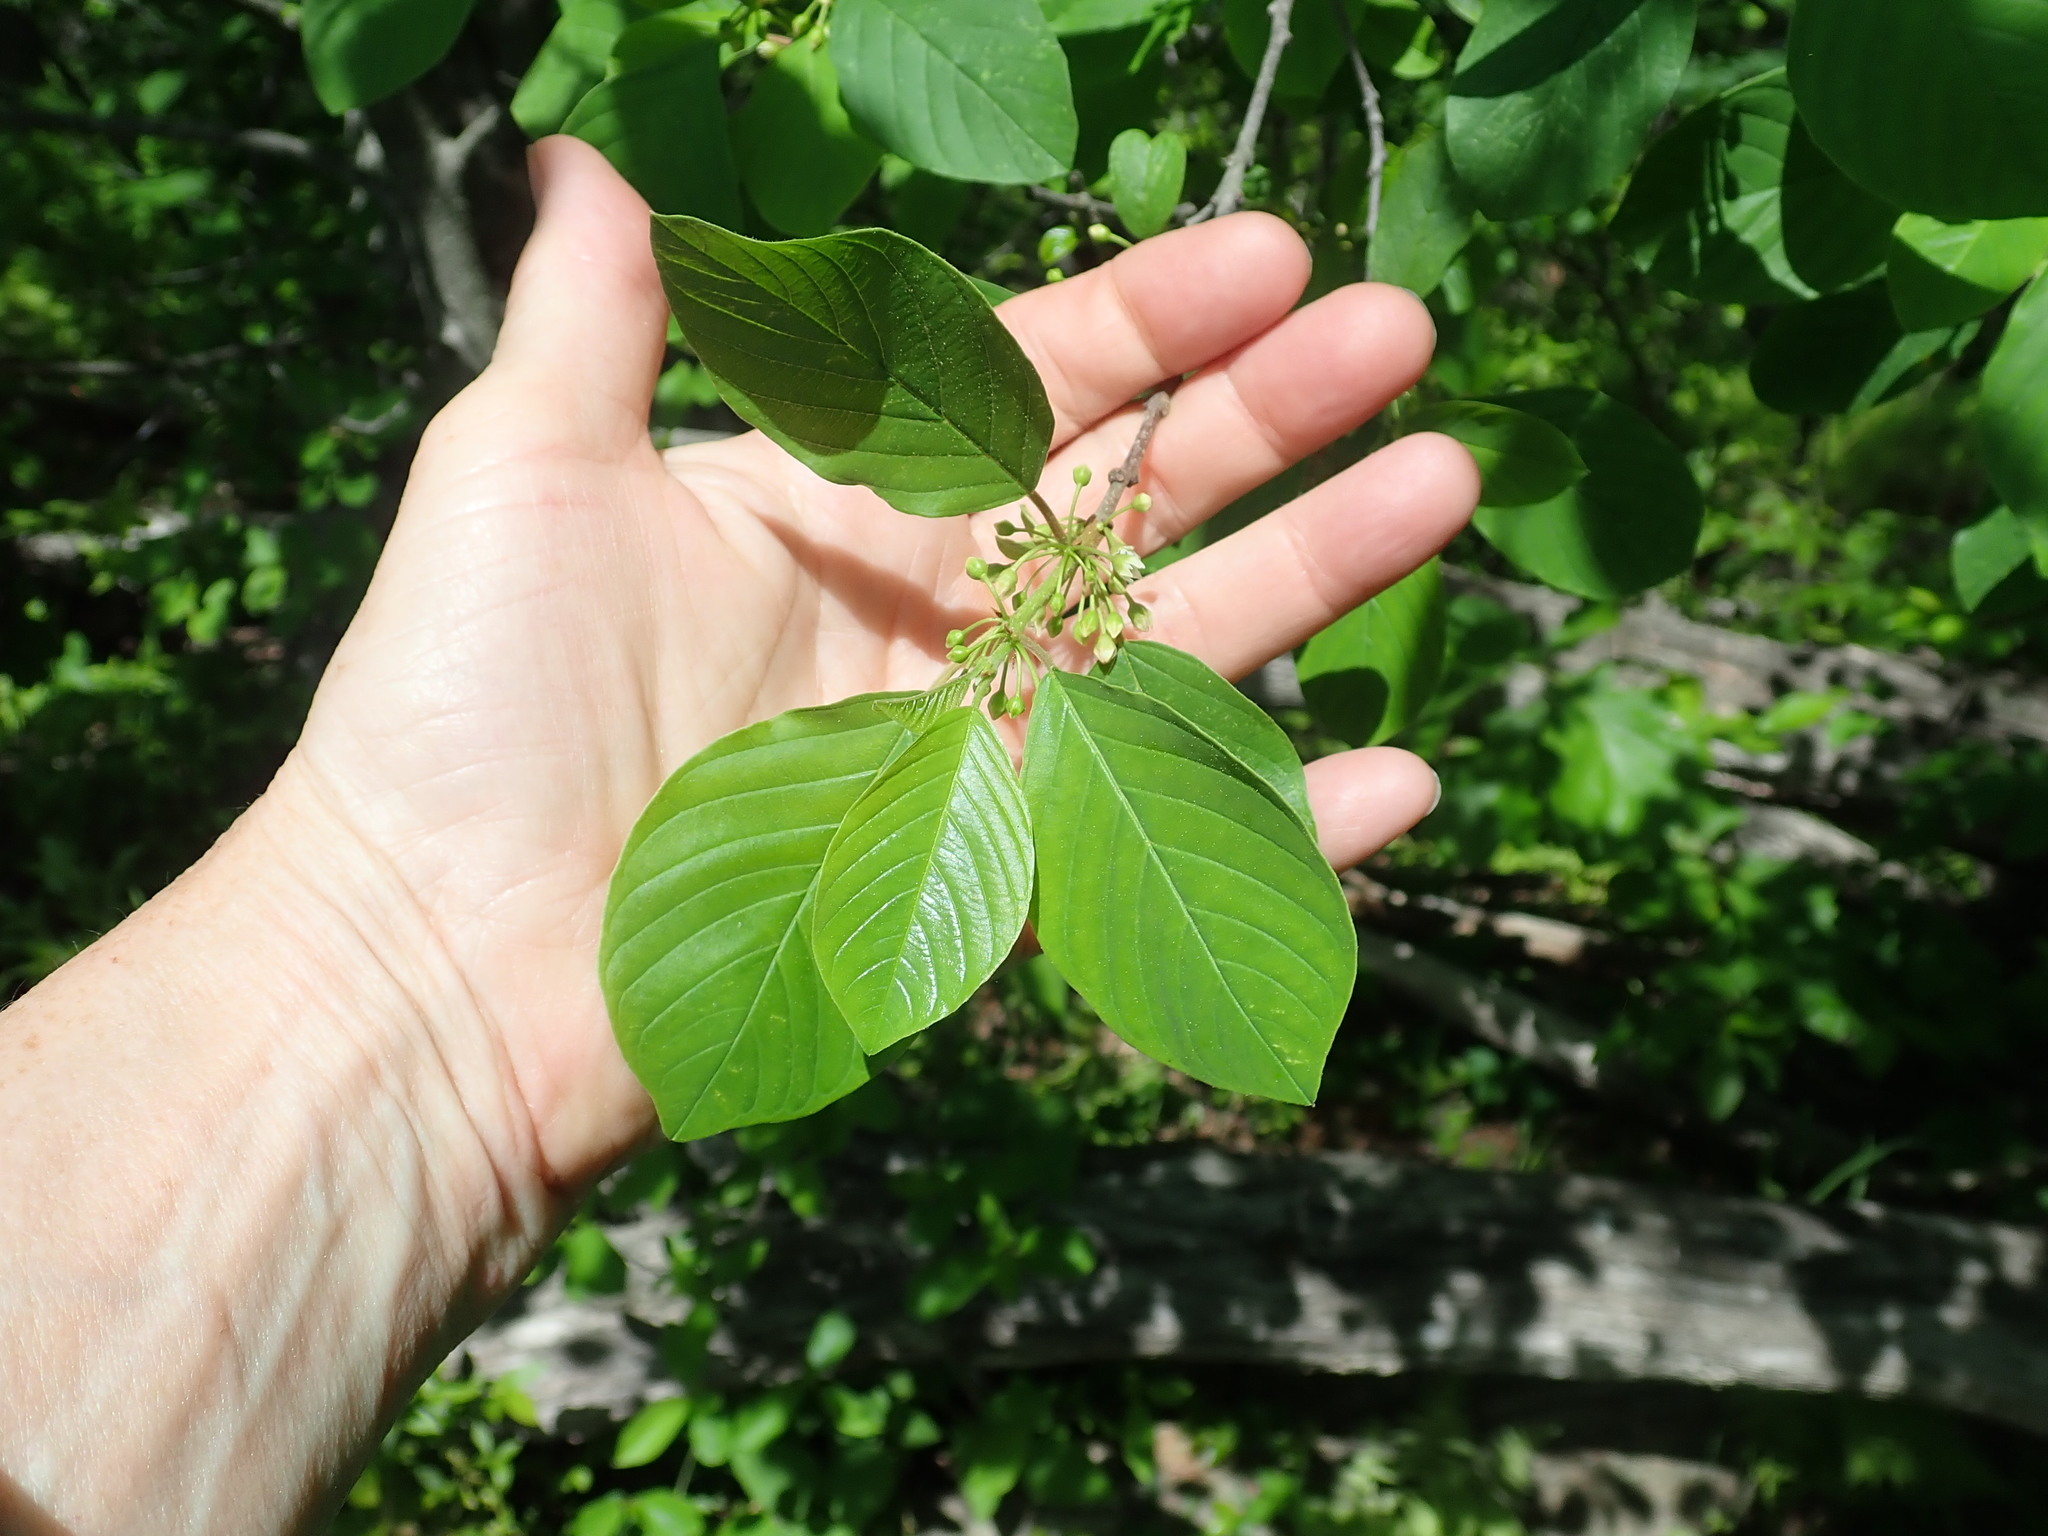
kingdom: Plantae
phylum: Tracheophyta
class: Magnoliopsida
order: Rosales
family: Rhamnaceae
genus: Frangula
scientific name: Frangula alnus
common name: Alder buckthorn
